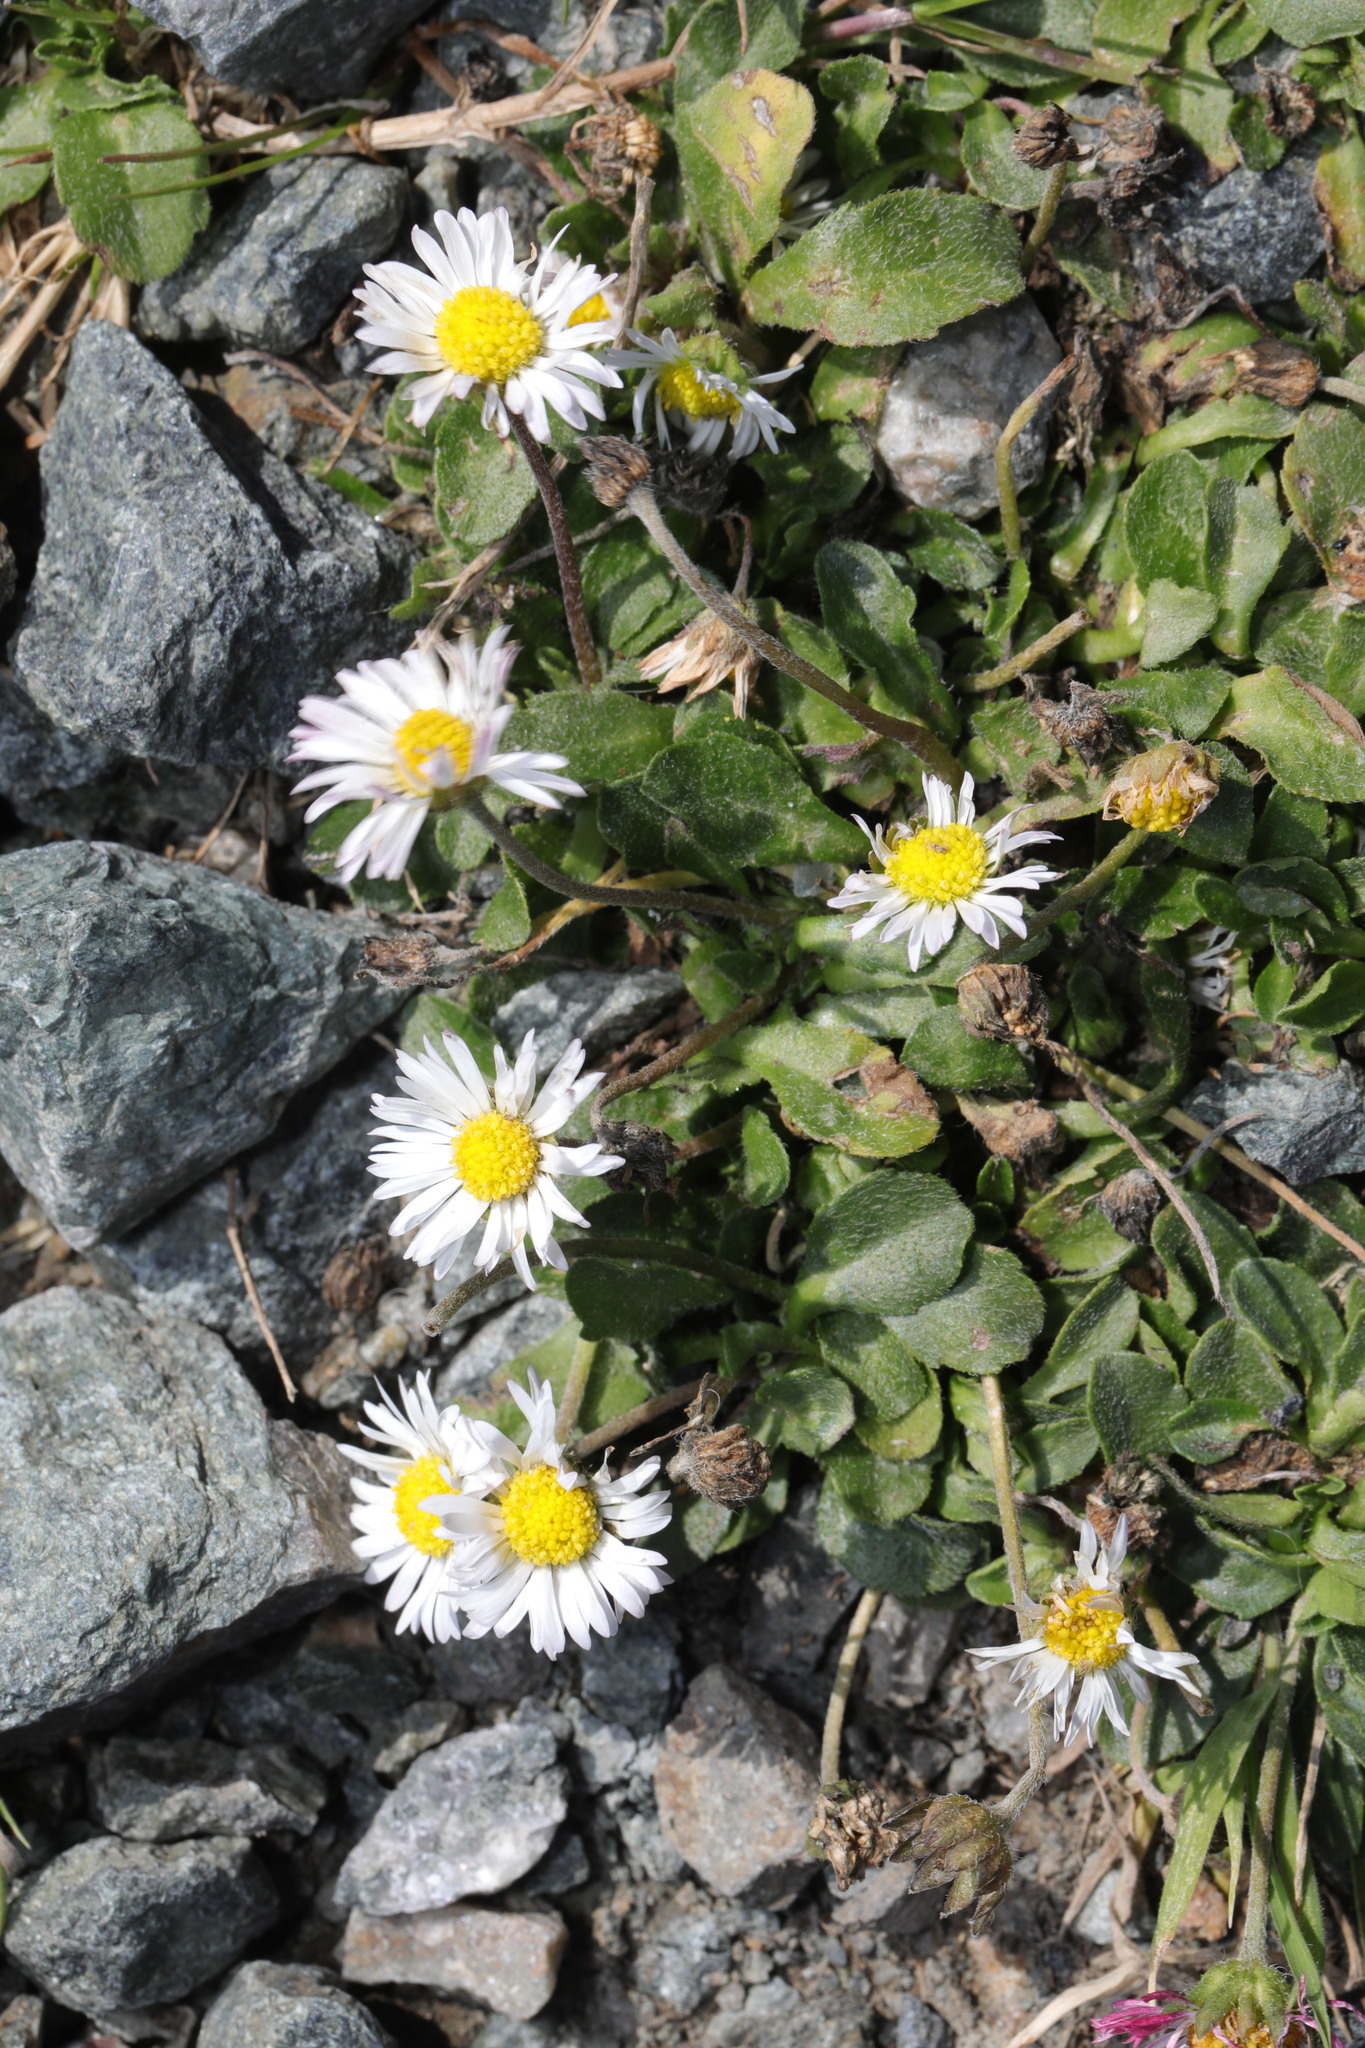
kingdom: Plantae
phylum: Tracheophyta
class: Magnoliopsida
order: Asterales
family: Asteraceae
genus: Bellis
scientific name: Bellis perennis
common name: Lawndaisy
